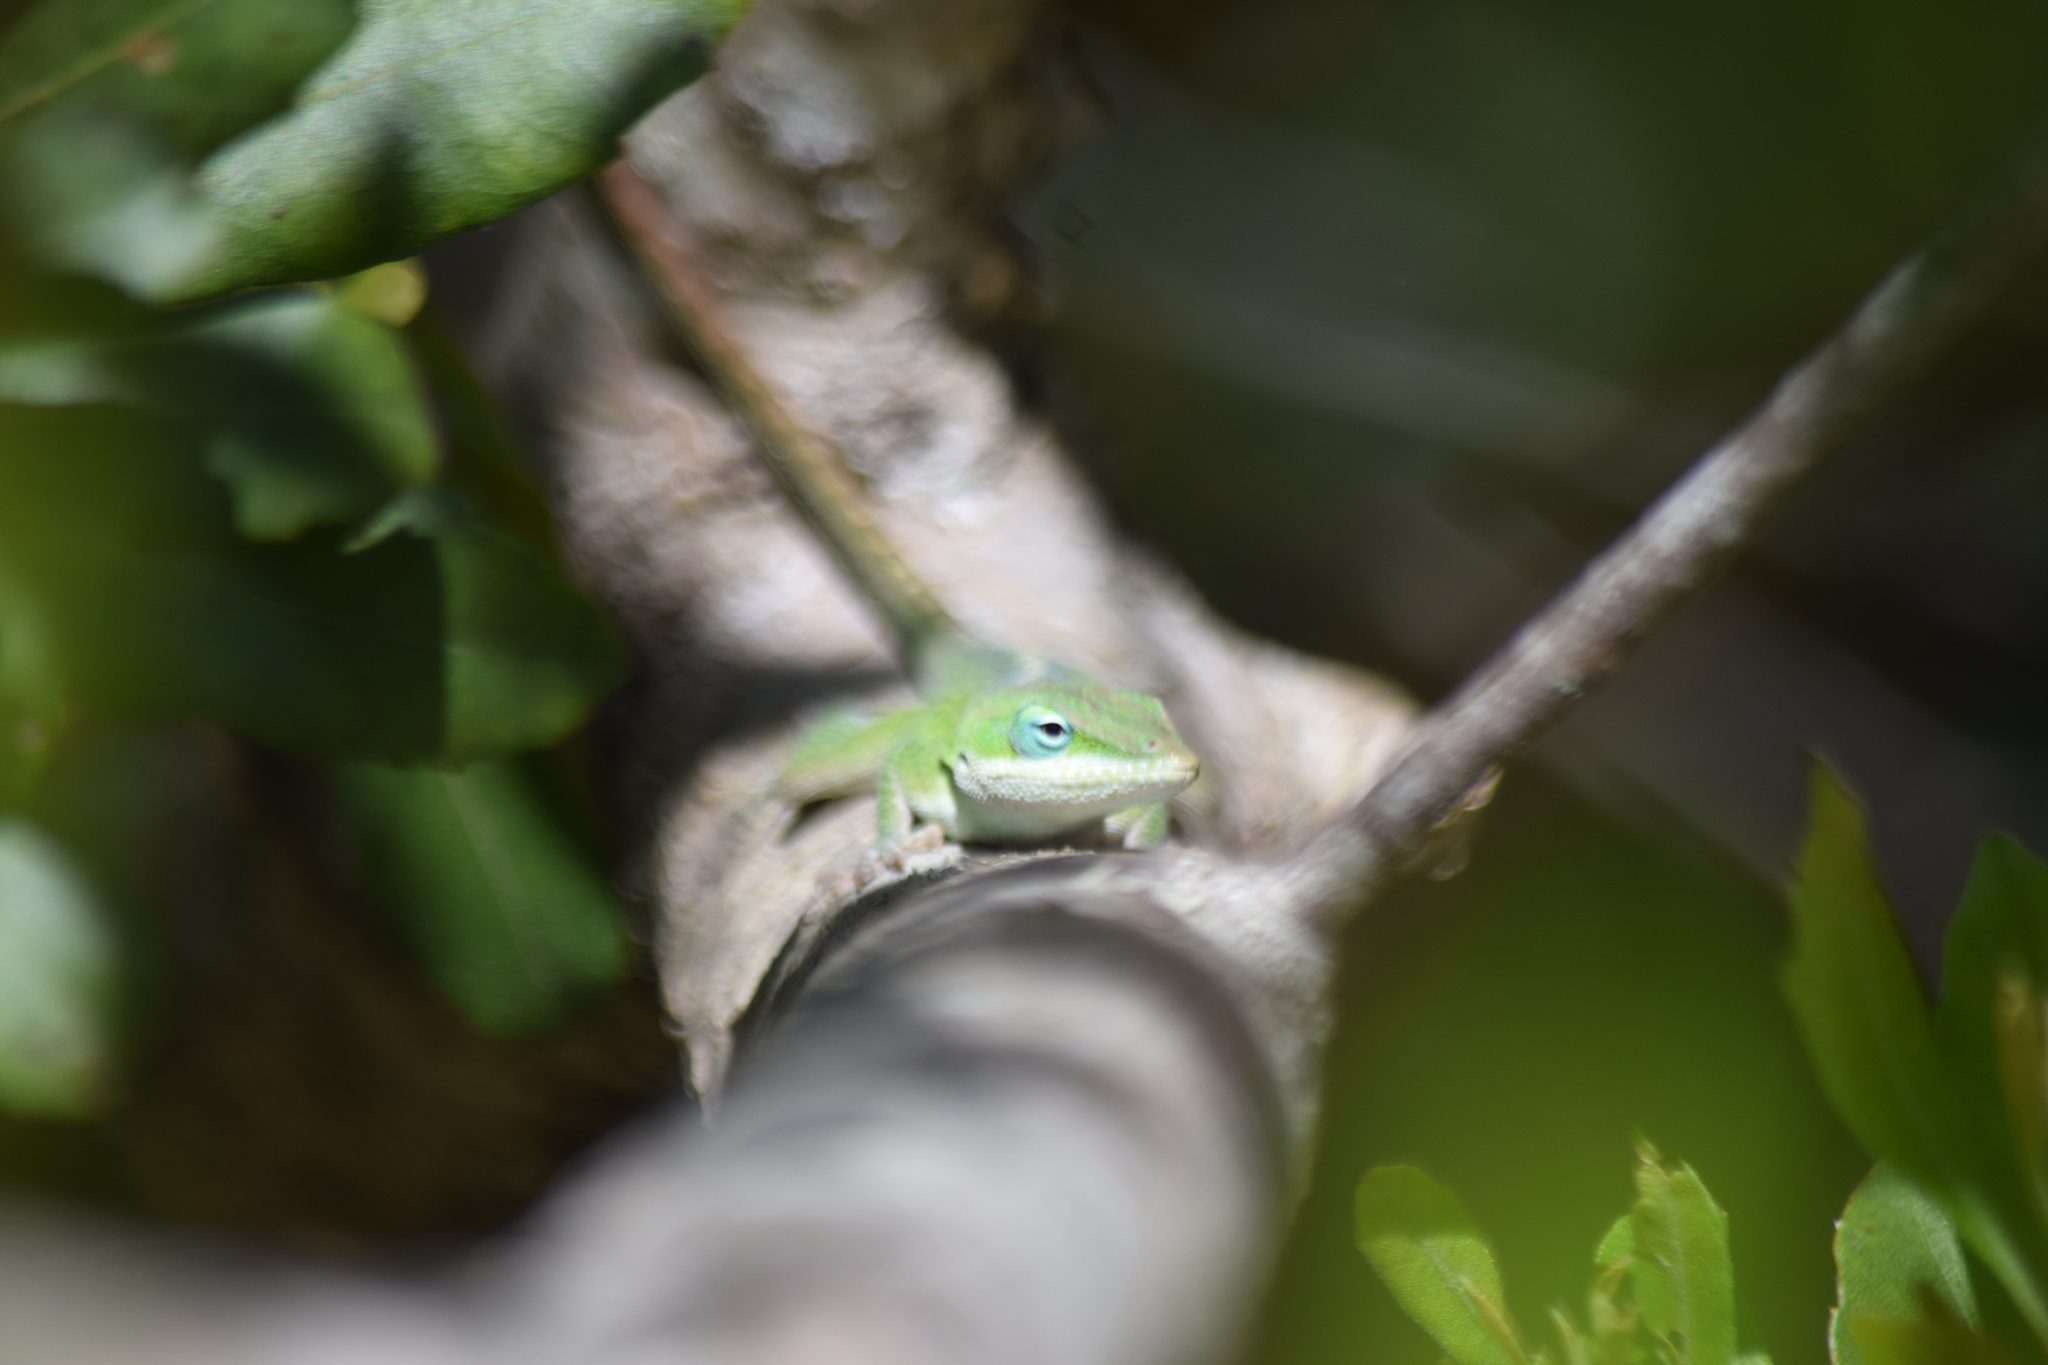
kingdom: Animalia
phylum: Chordata
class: Squamata
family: Dactyloidae
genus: Anolis
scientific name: Anolis carolinensis
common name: Green anole
